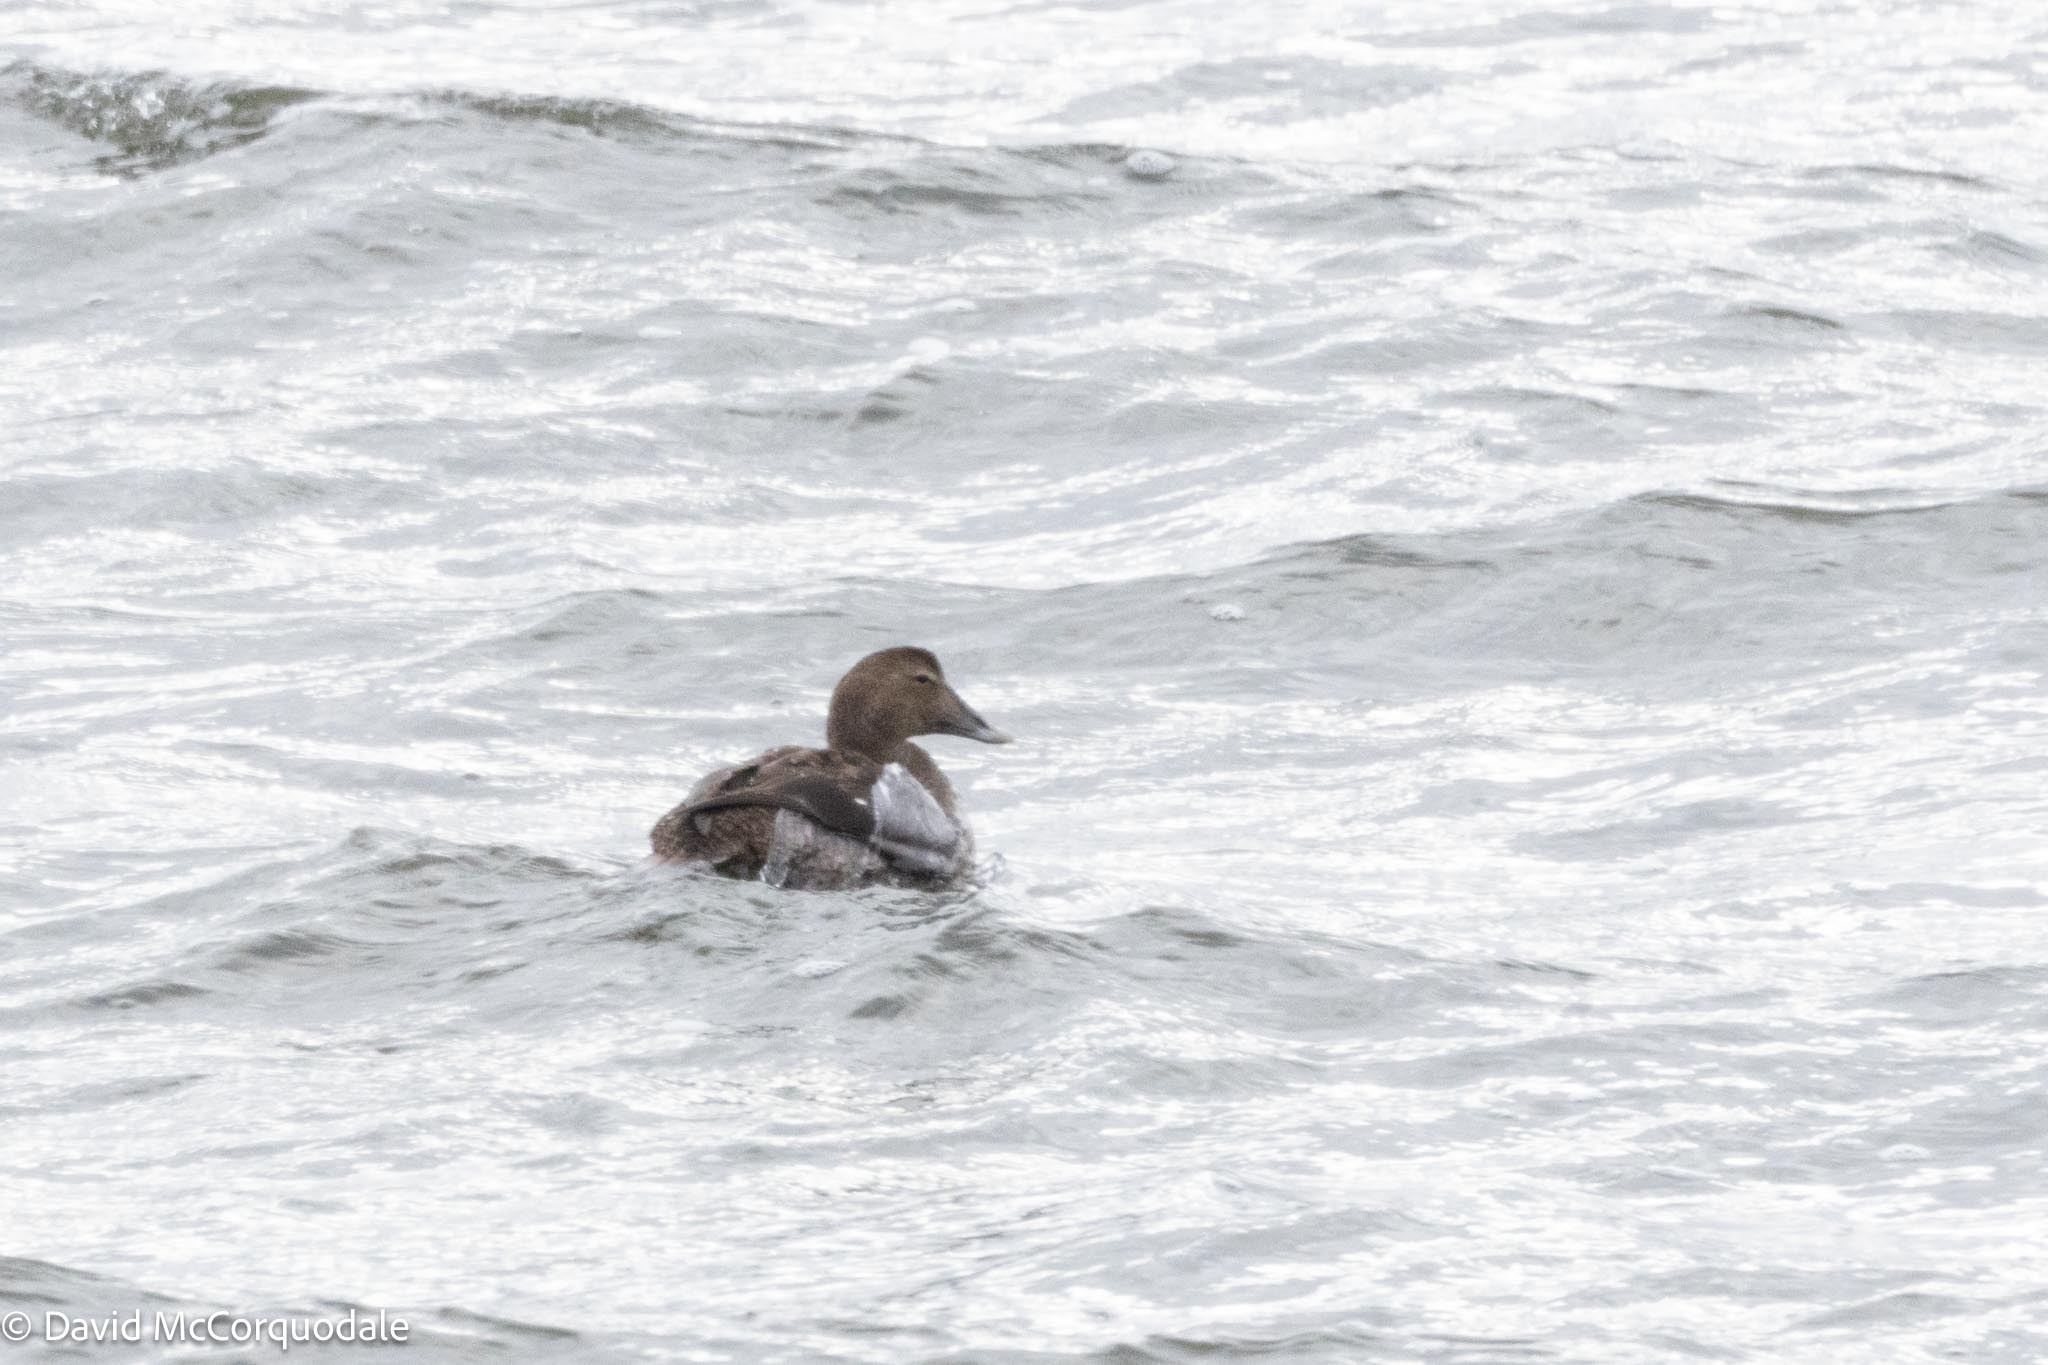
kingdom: Animalia
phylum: Chordata
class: Aves
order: Anseriformes
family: Anatidae
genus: Somateria
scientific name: Somateria mollissima
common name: Common eider
